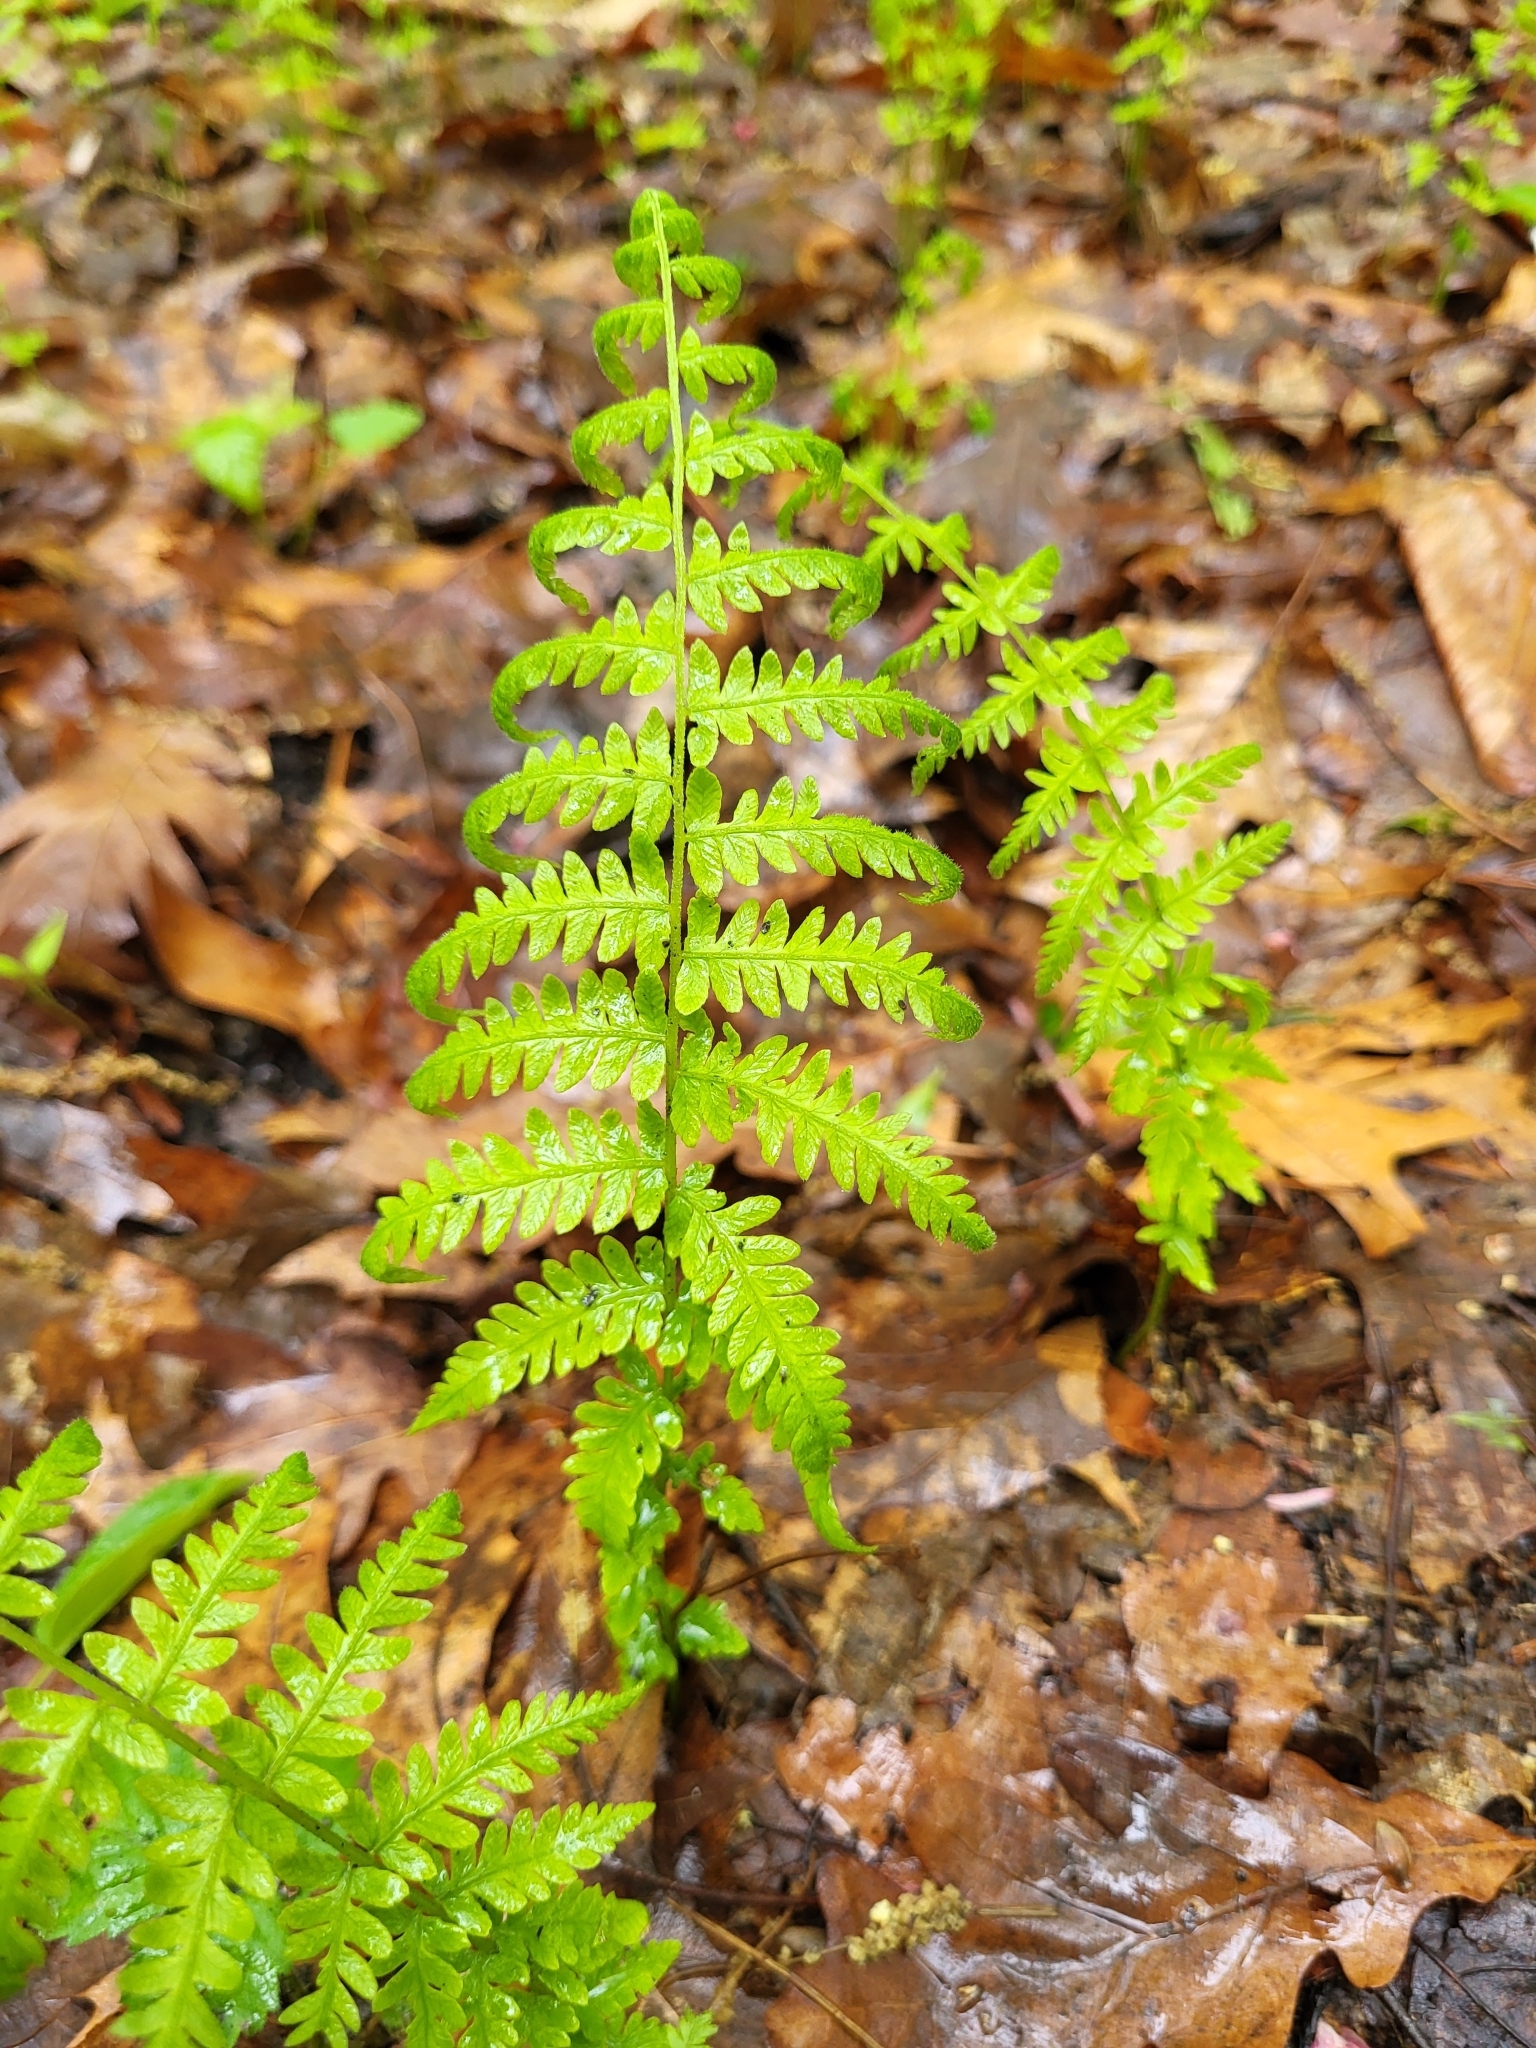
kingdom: Plantae
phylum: Tracheophyta
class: Polypodiopsida
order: Polypodiales
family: Thelypteridaceae
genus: Amauropelta
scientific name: Amauropelta noveboracensis
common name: New york fern
